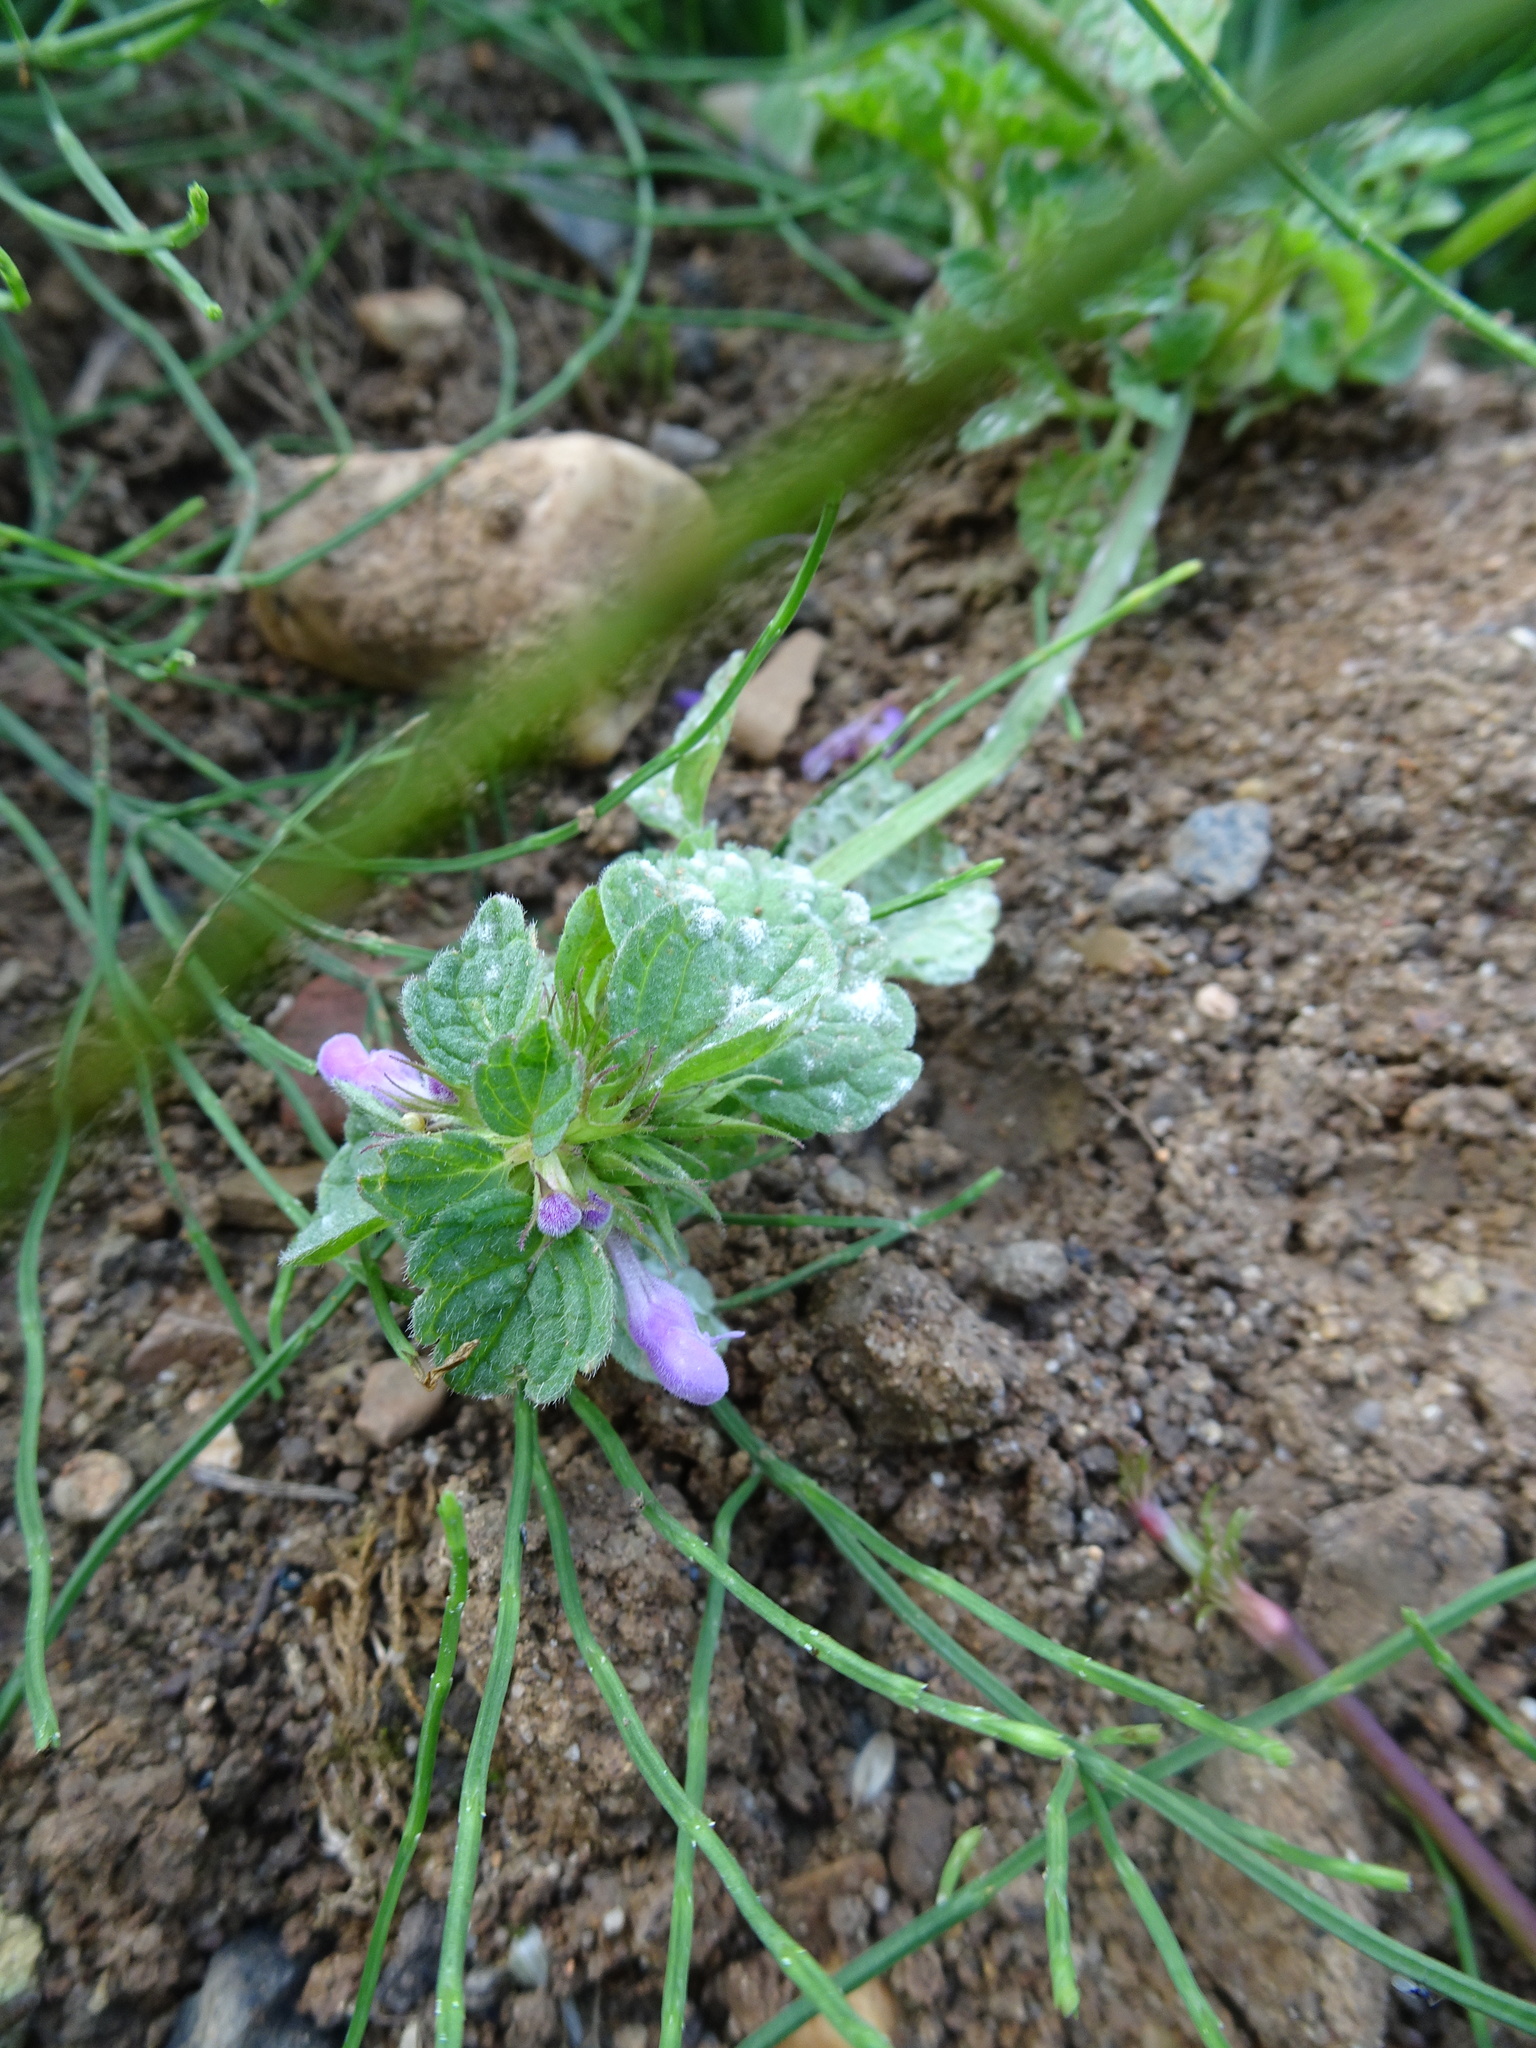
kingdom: Plantae
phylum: Tracheophyta
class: Magnoliopsida
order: Lamiales
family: Lamiaceae
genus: Lamium
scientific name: Lamium purpureum
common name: Red dead-nettle
